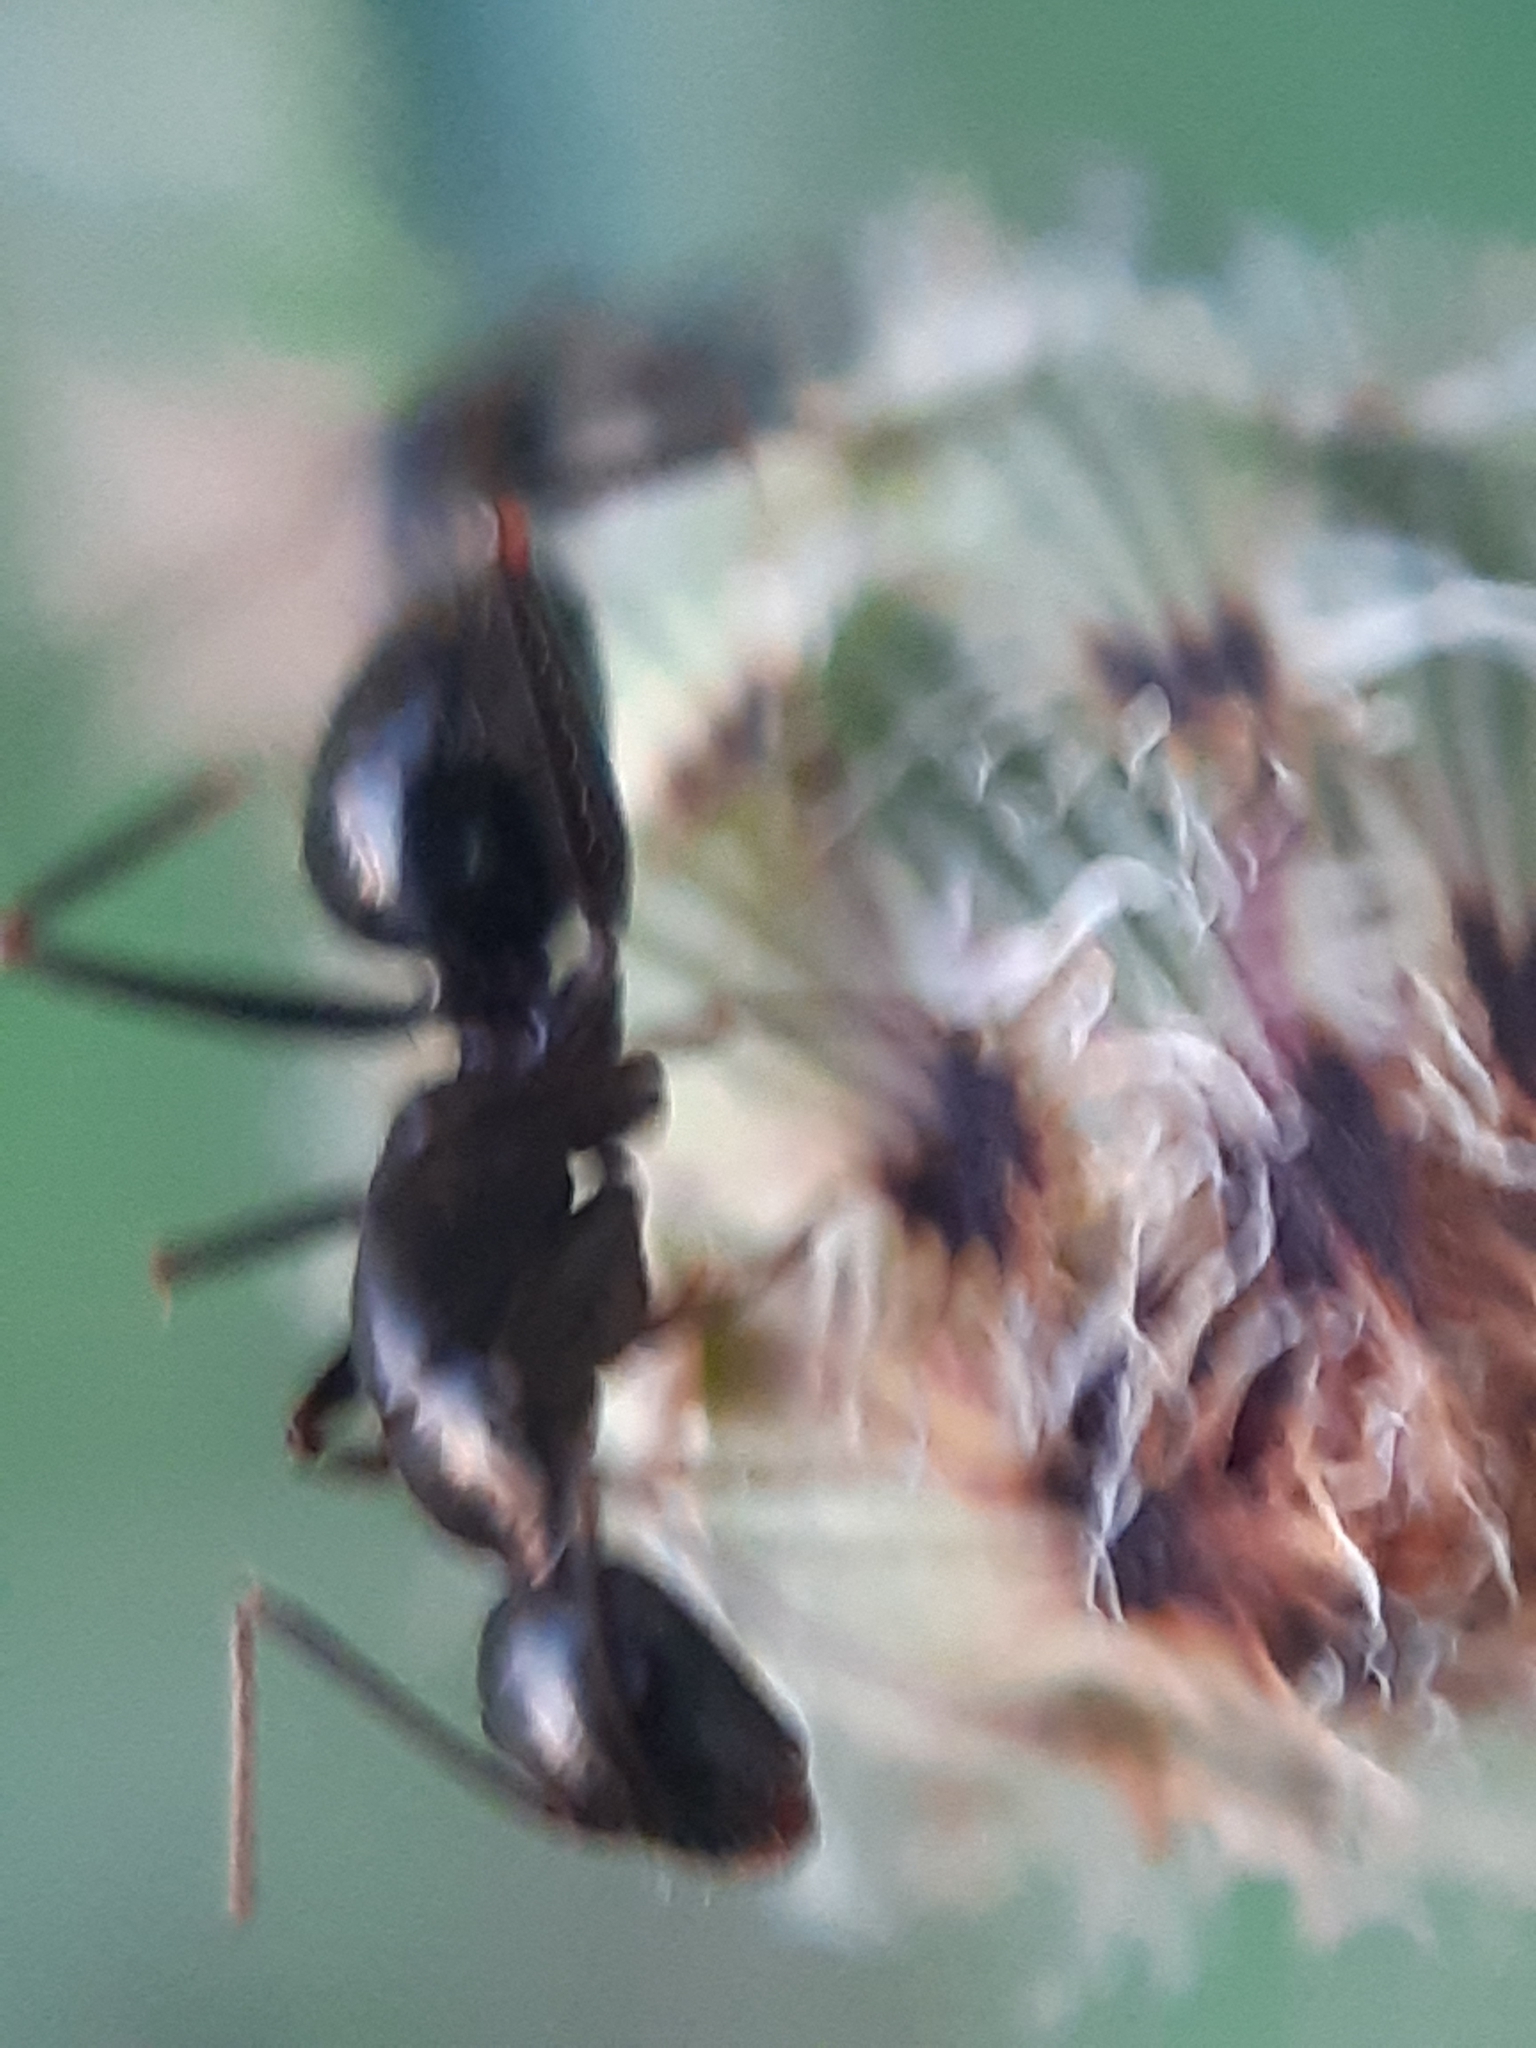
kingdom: Animalia
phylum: Arthropoda
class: Insecta
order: Hymenoptera
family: Formicidae
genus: Camponotus
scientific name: Camponotus aethiops
